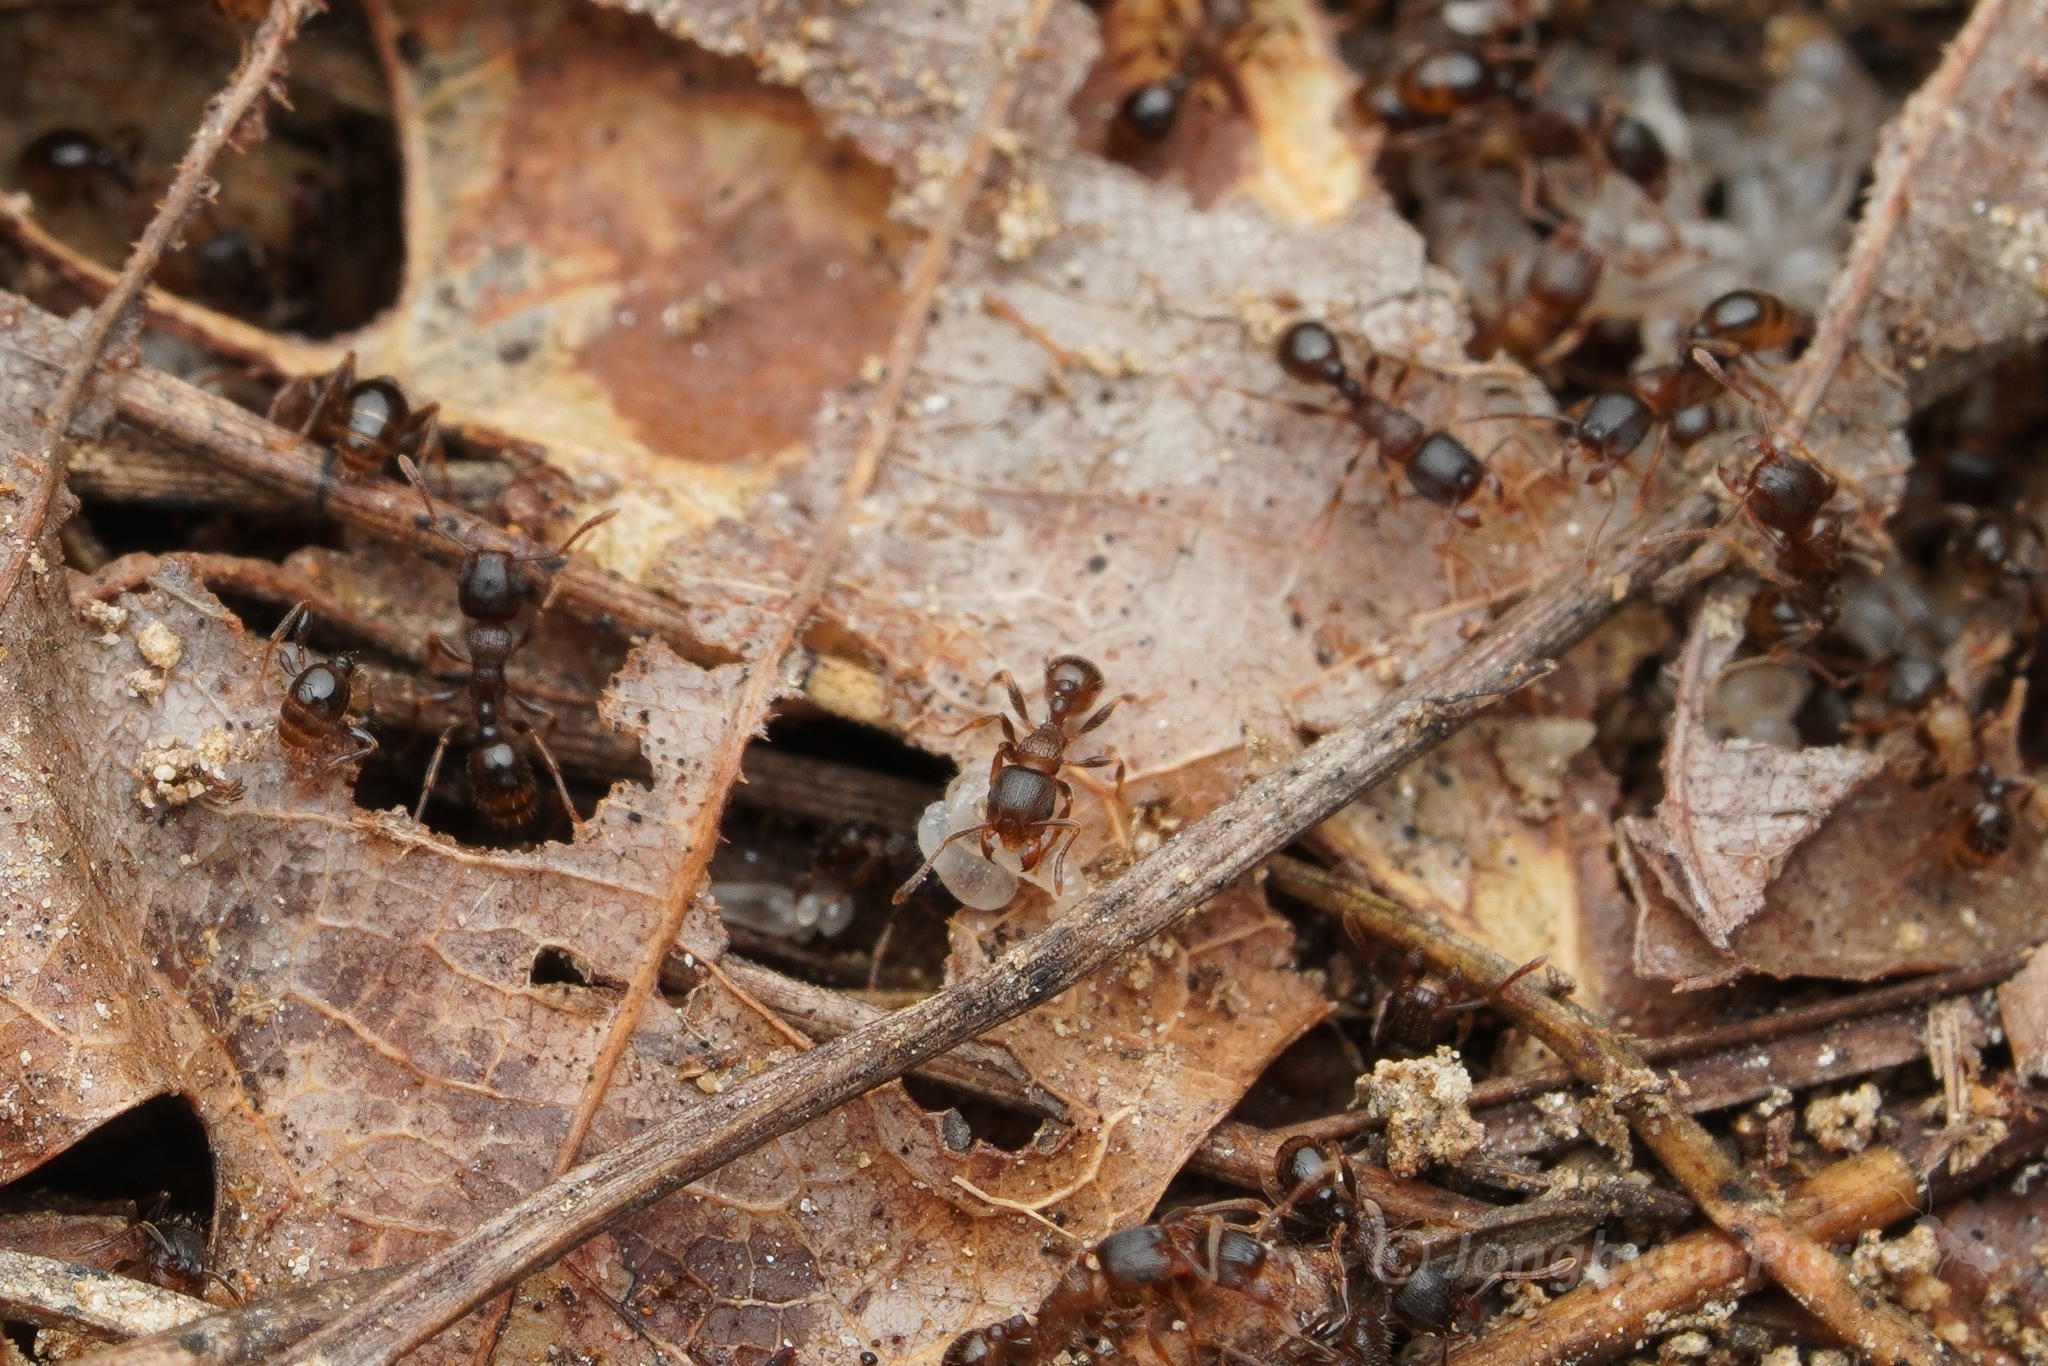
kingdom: Animalia
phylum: Arthropoda
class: Insecta
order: Hymenoptera
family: Formicidae
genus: Tetramorium
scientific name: Tetramorium tsushimae
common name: Ant
